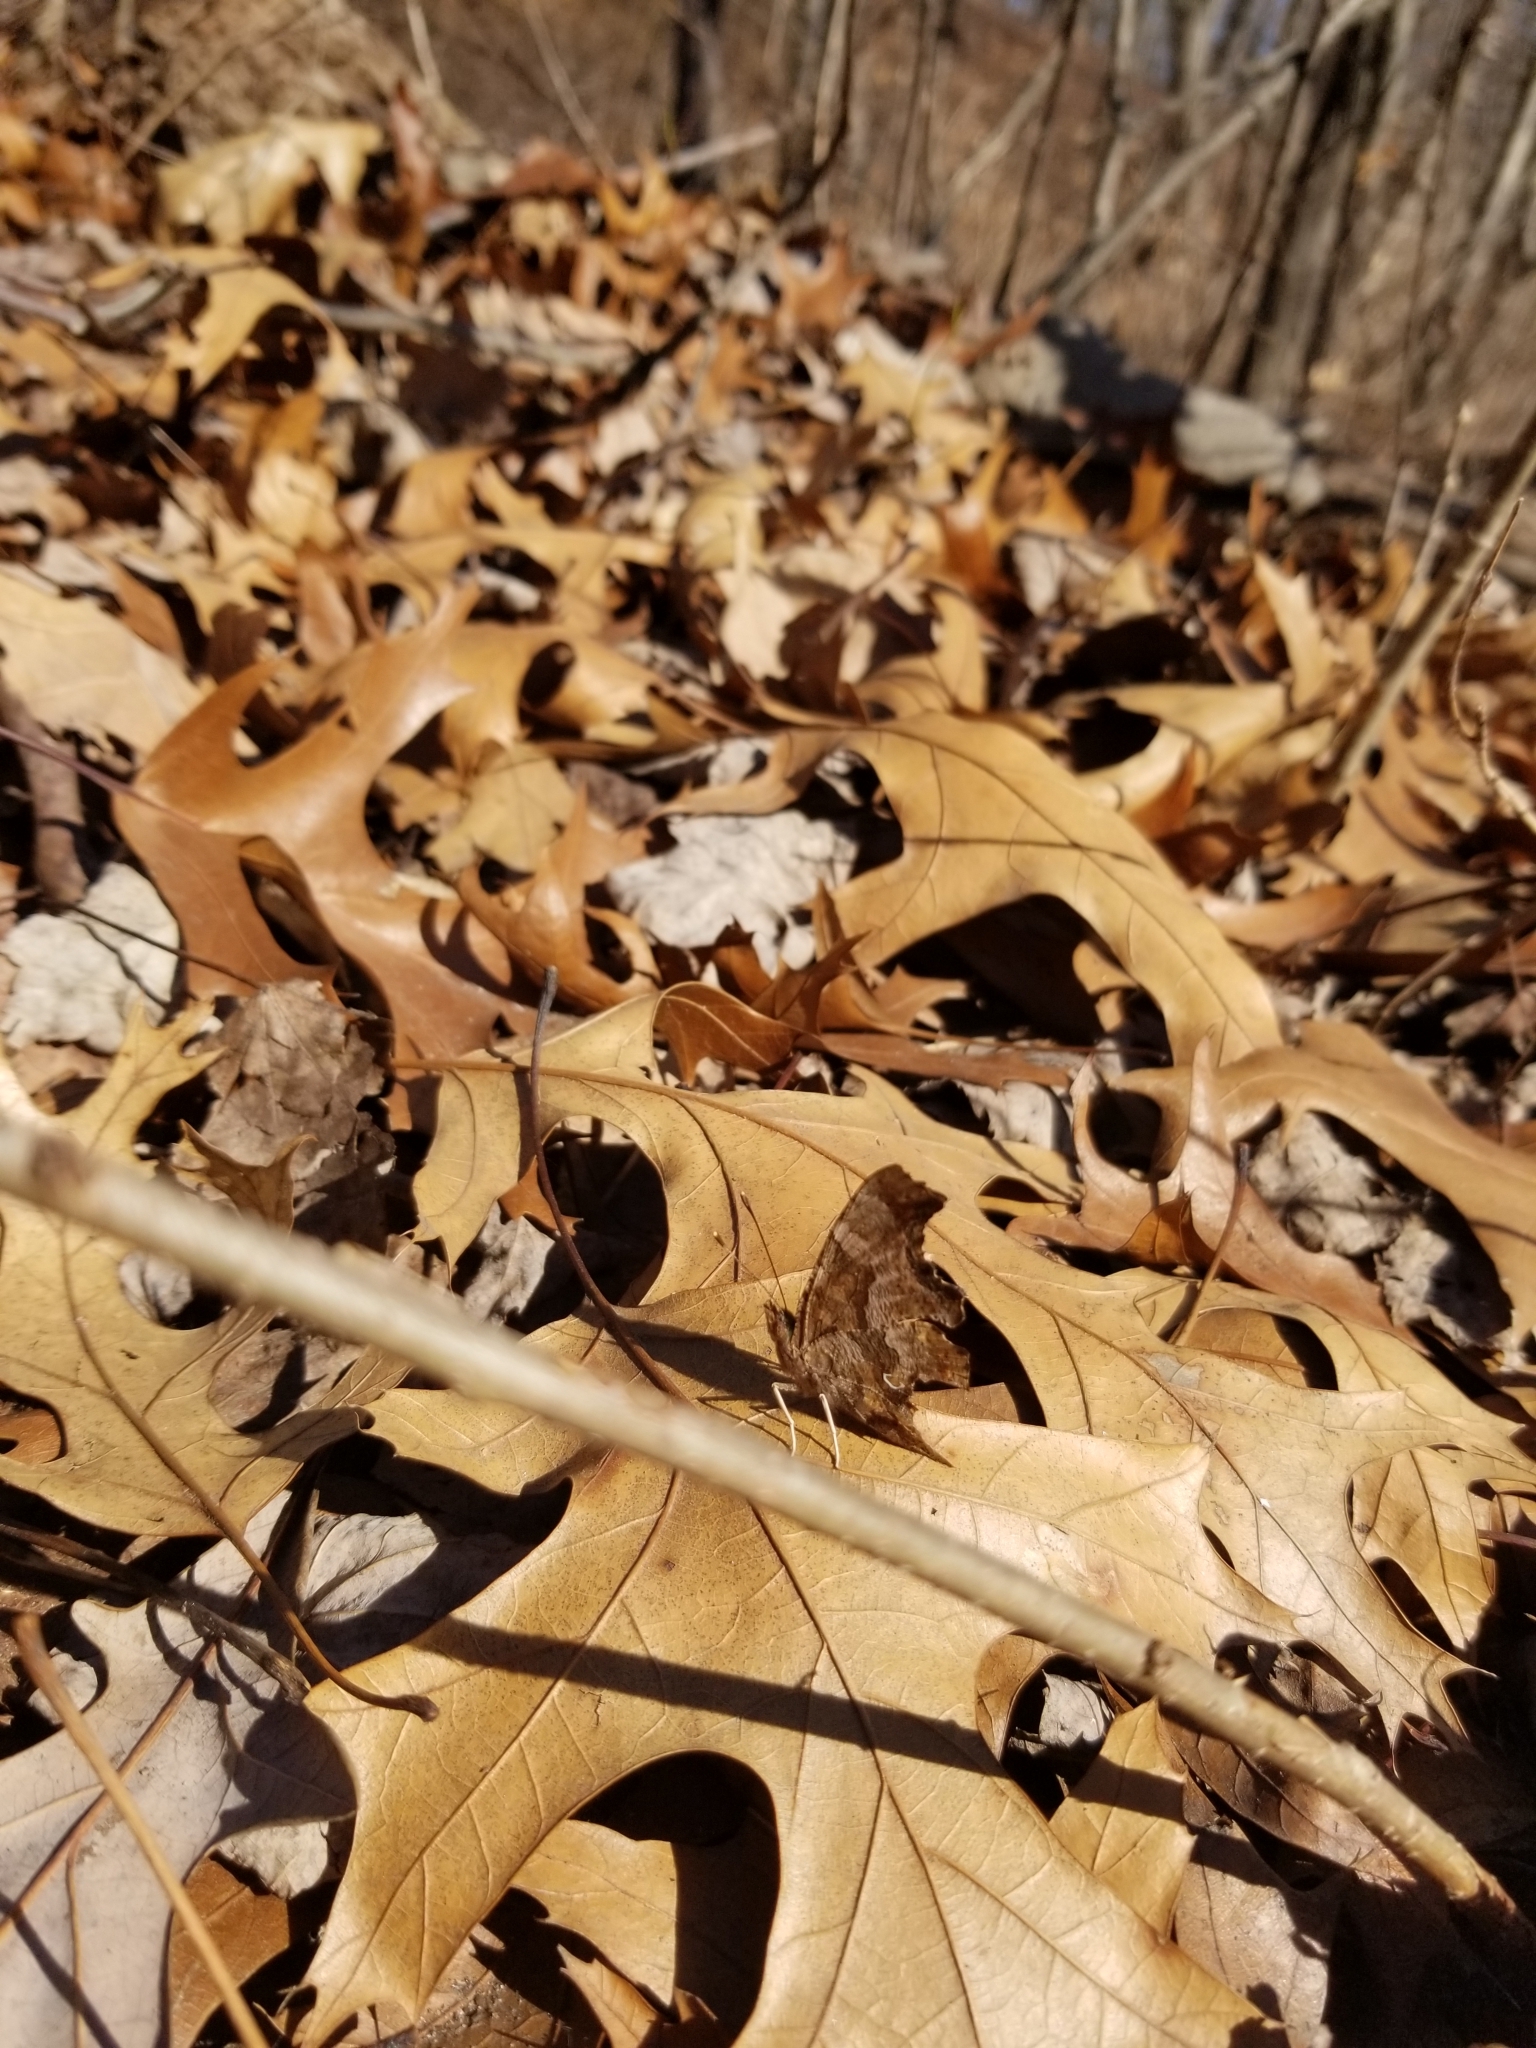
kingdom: Animalia
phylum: Arthropoda
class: Insecta
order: Lepidoptera
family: Nymphalidae
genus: Polygonia
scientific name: Polygonia comma
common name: Eastern comma
